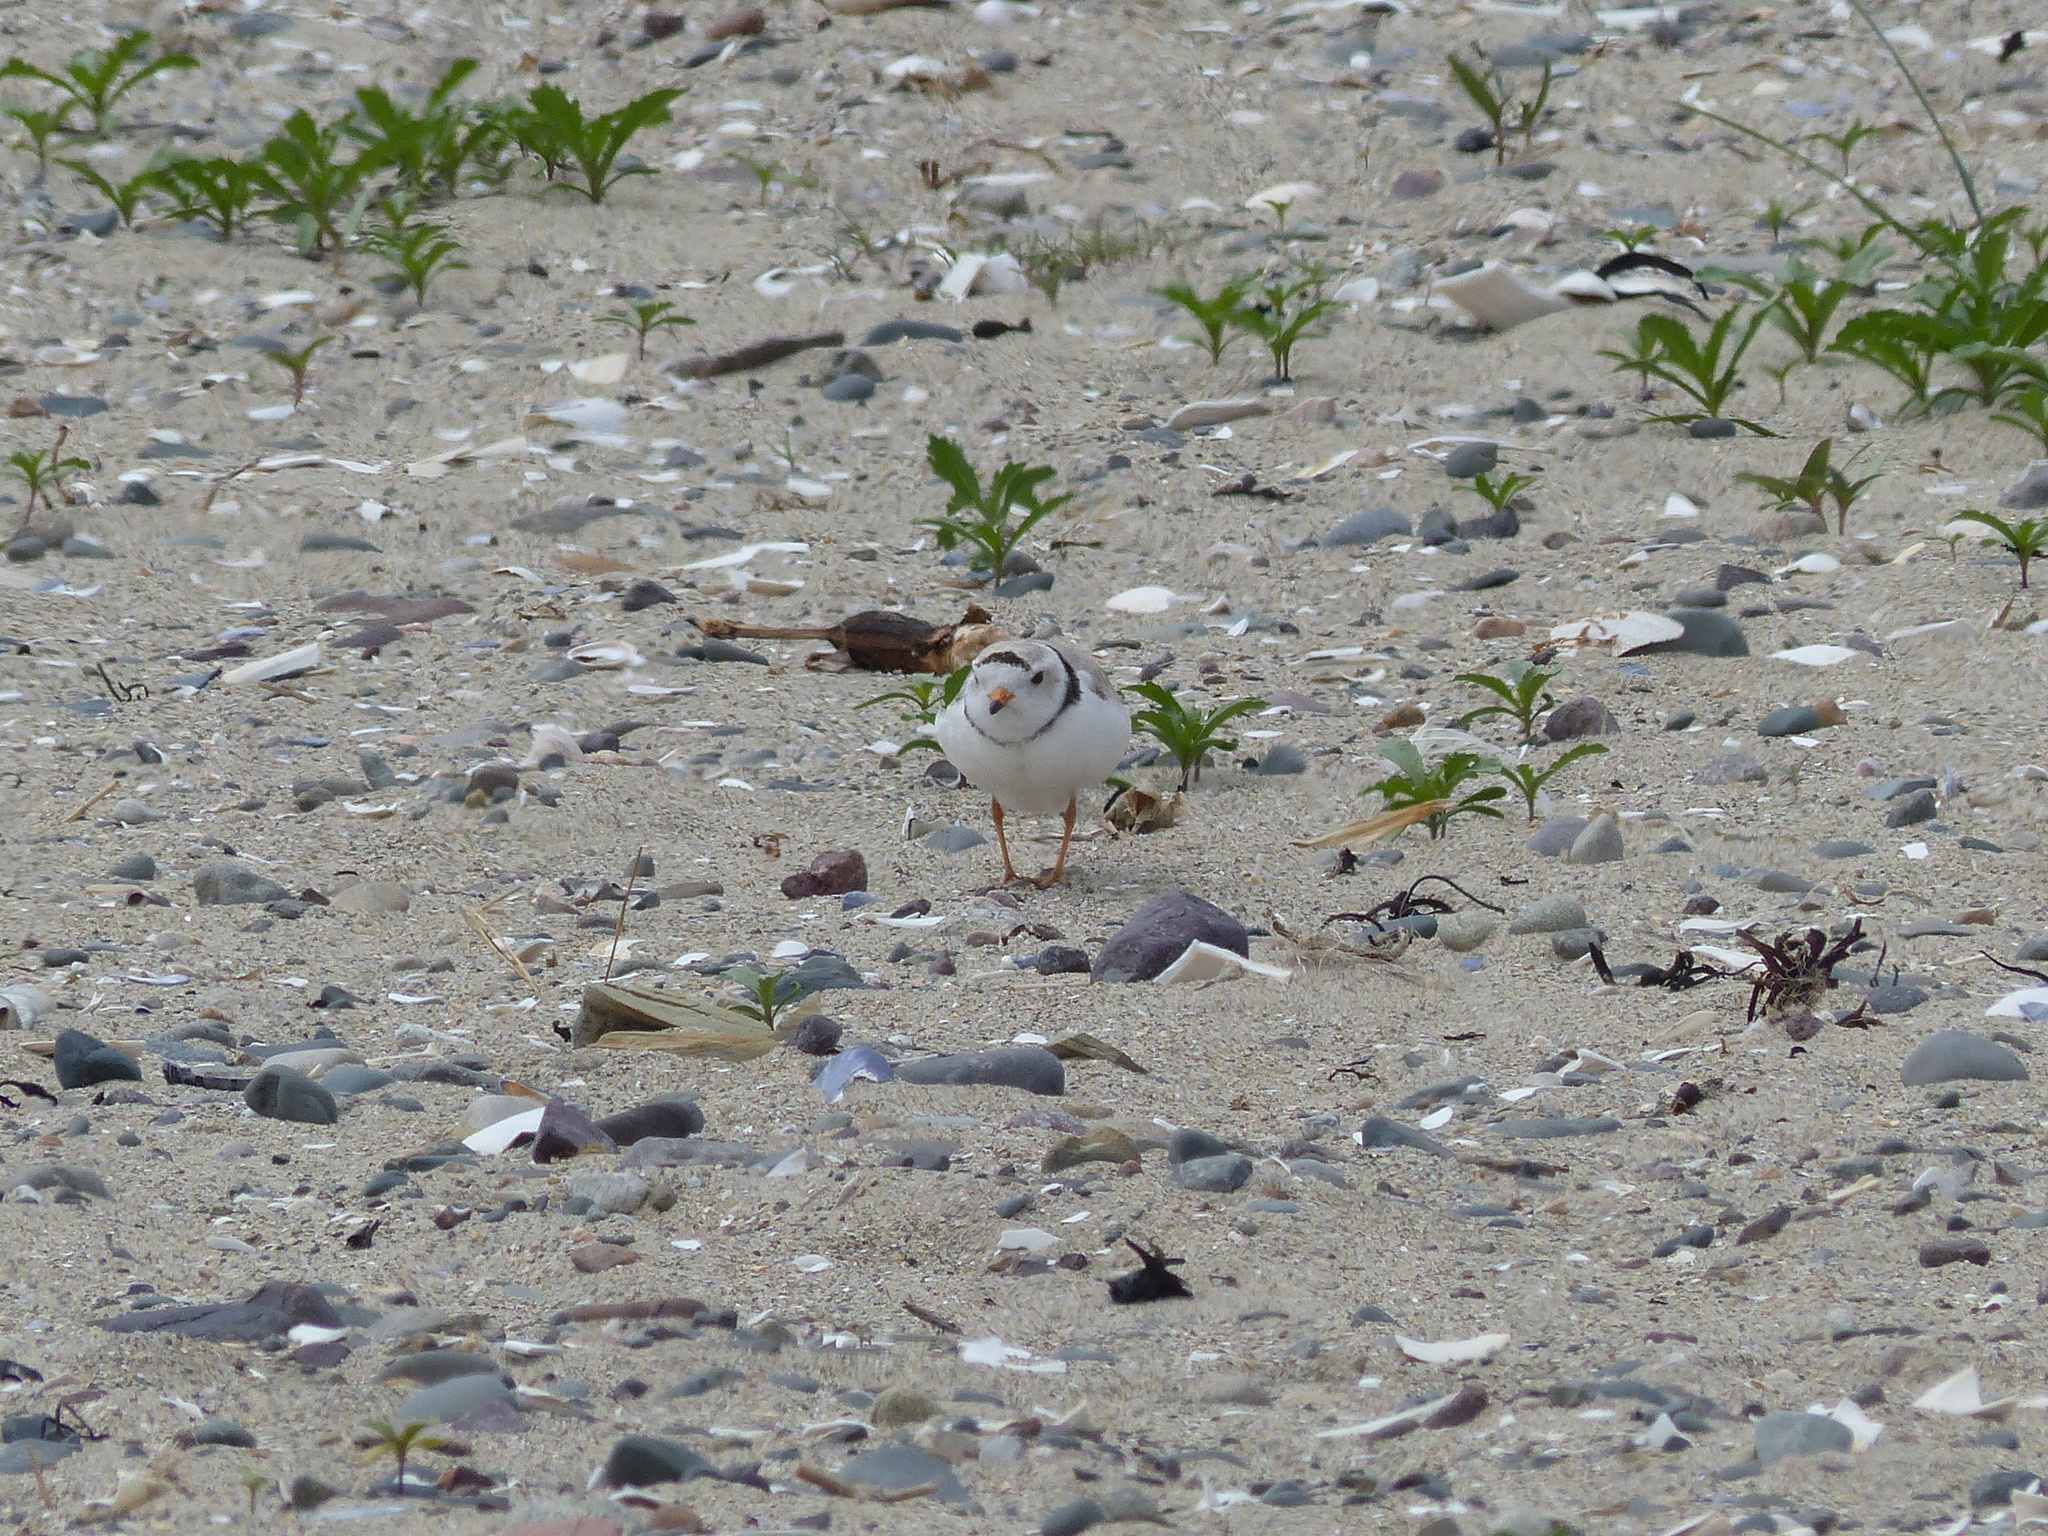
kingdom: Animalia
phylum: Chordata
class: Aves
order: Charadriiformes
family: Charadriidae
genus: Charadrius
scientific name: Charadrius melodus
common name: Piping plover
